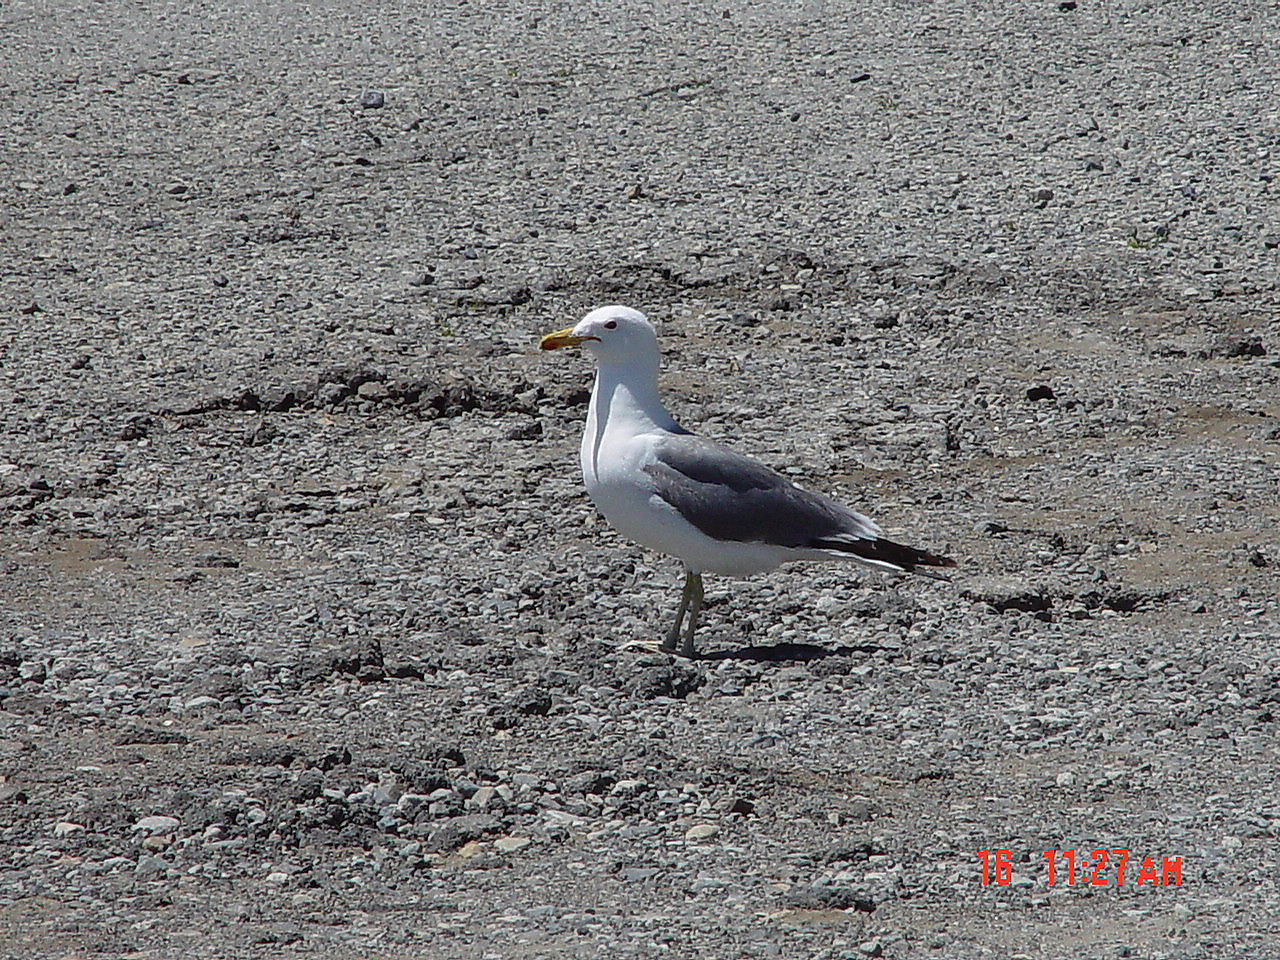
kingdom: Animalia
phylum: Chordata
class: Aves
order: Charadriiformes
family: Laridae
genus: Larus
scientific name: Larus californicus
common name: California gull
